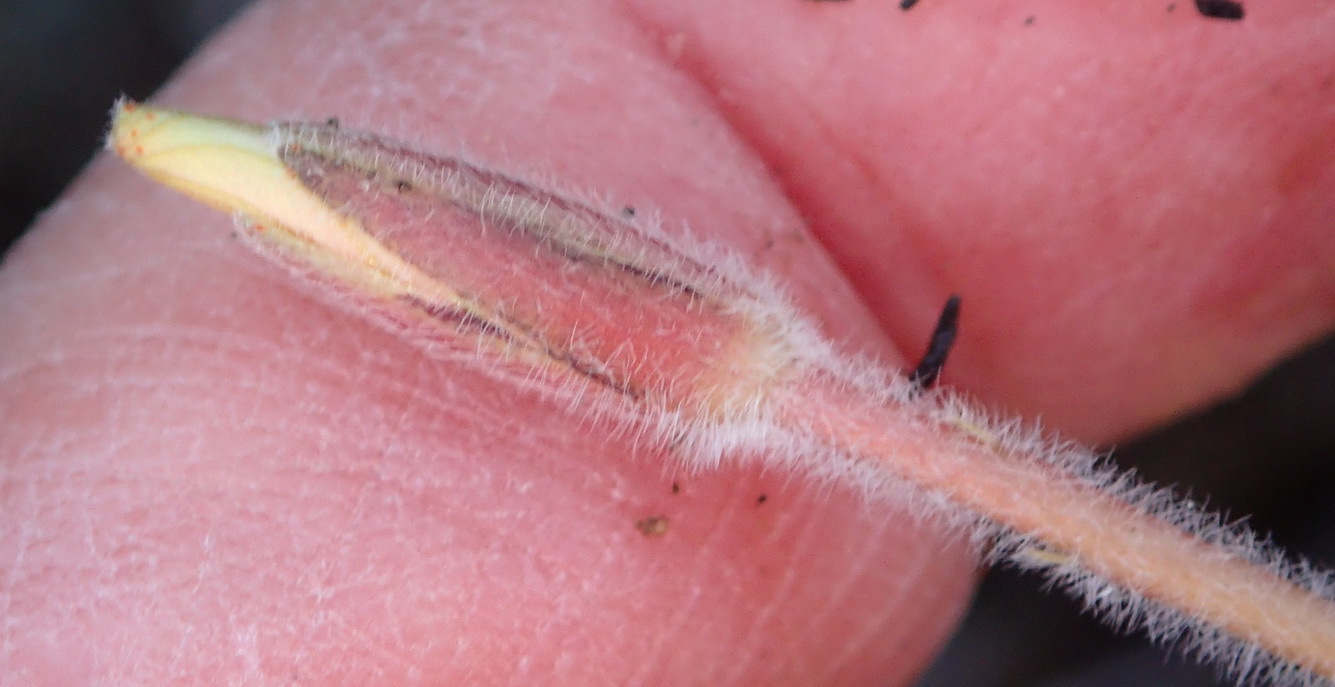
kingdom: Plantae
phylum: Tracheophyta
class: Magnoliopsida
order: Oxalidales
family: Oxalidaceae
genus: Oxalis
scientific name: Oxalis algoensis
